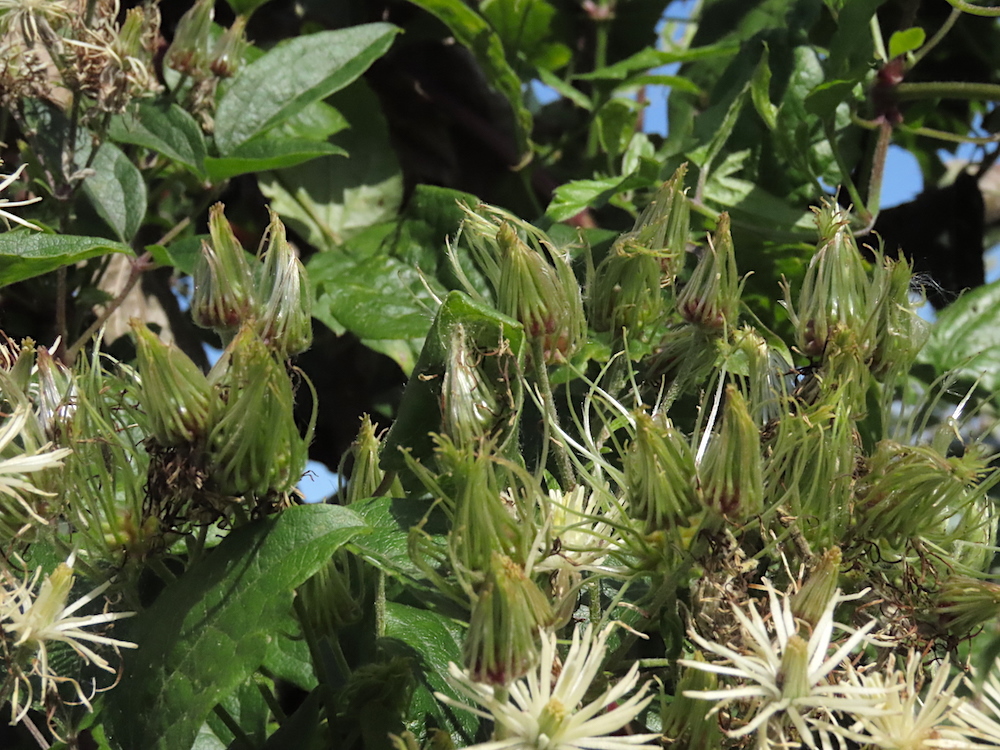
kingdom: Plantae
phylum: Tracheophyta
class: Magnoliopsida
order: Ranunculales
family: Ranunculaceae
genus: Clematis
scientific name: Clematis vitalba
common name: Evergreen clematis
